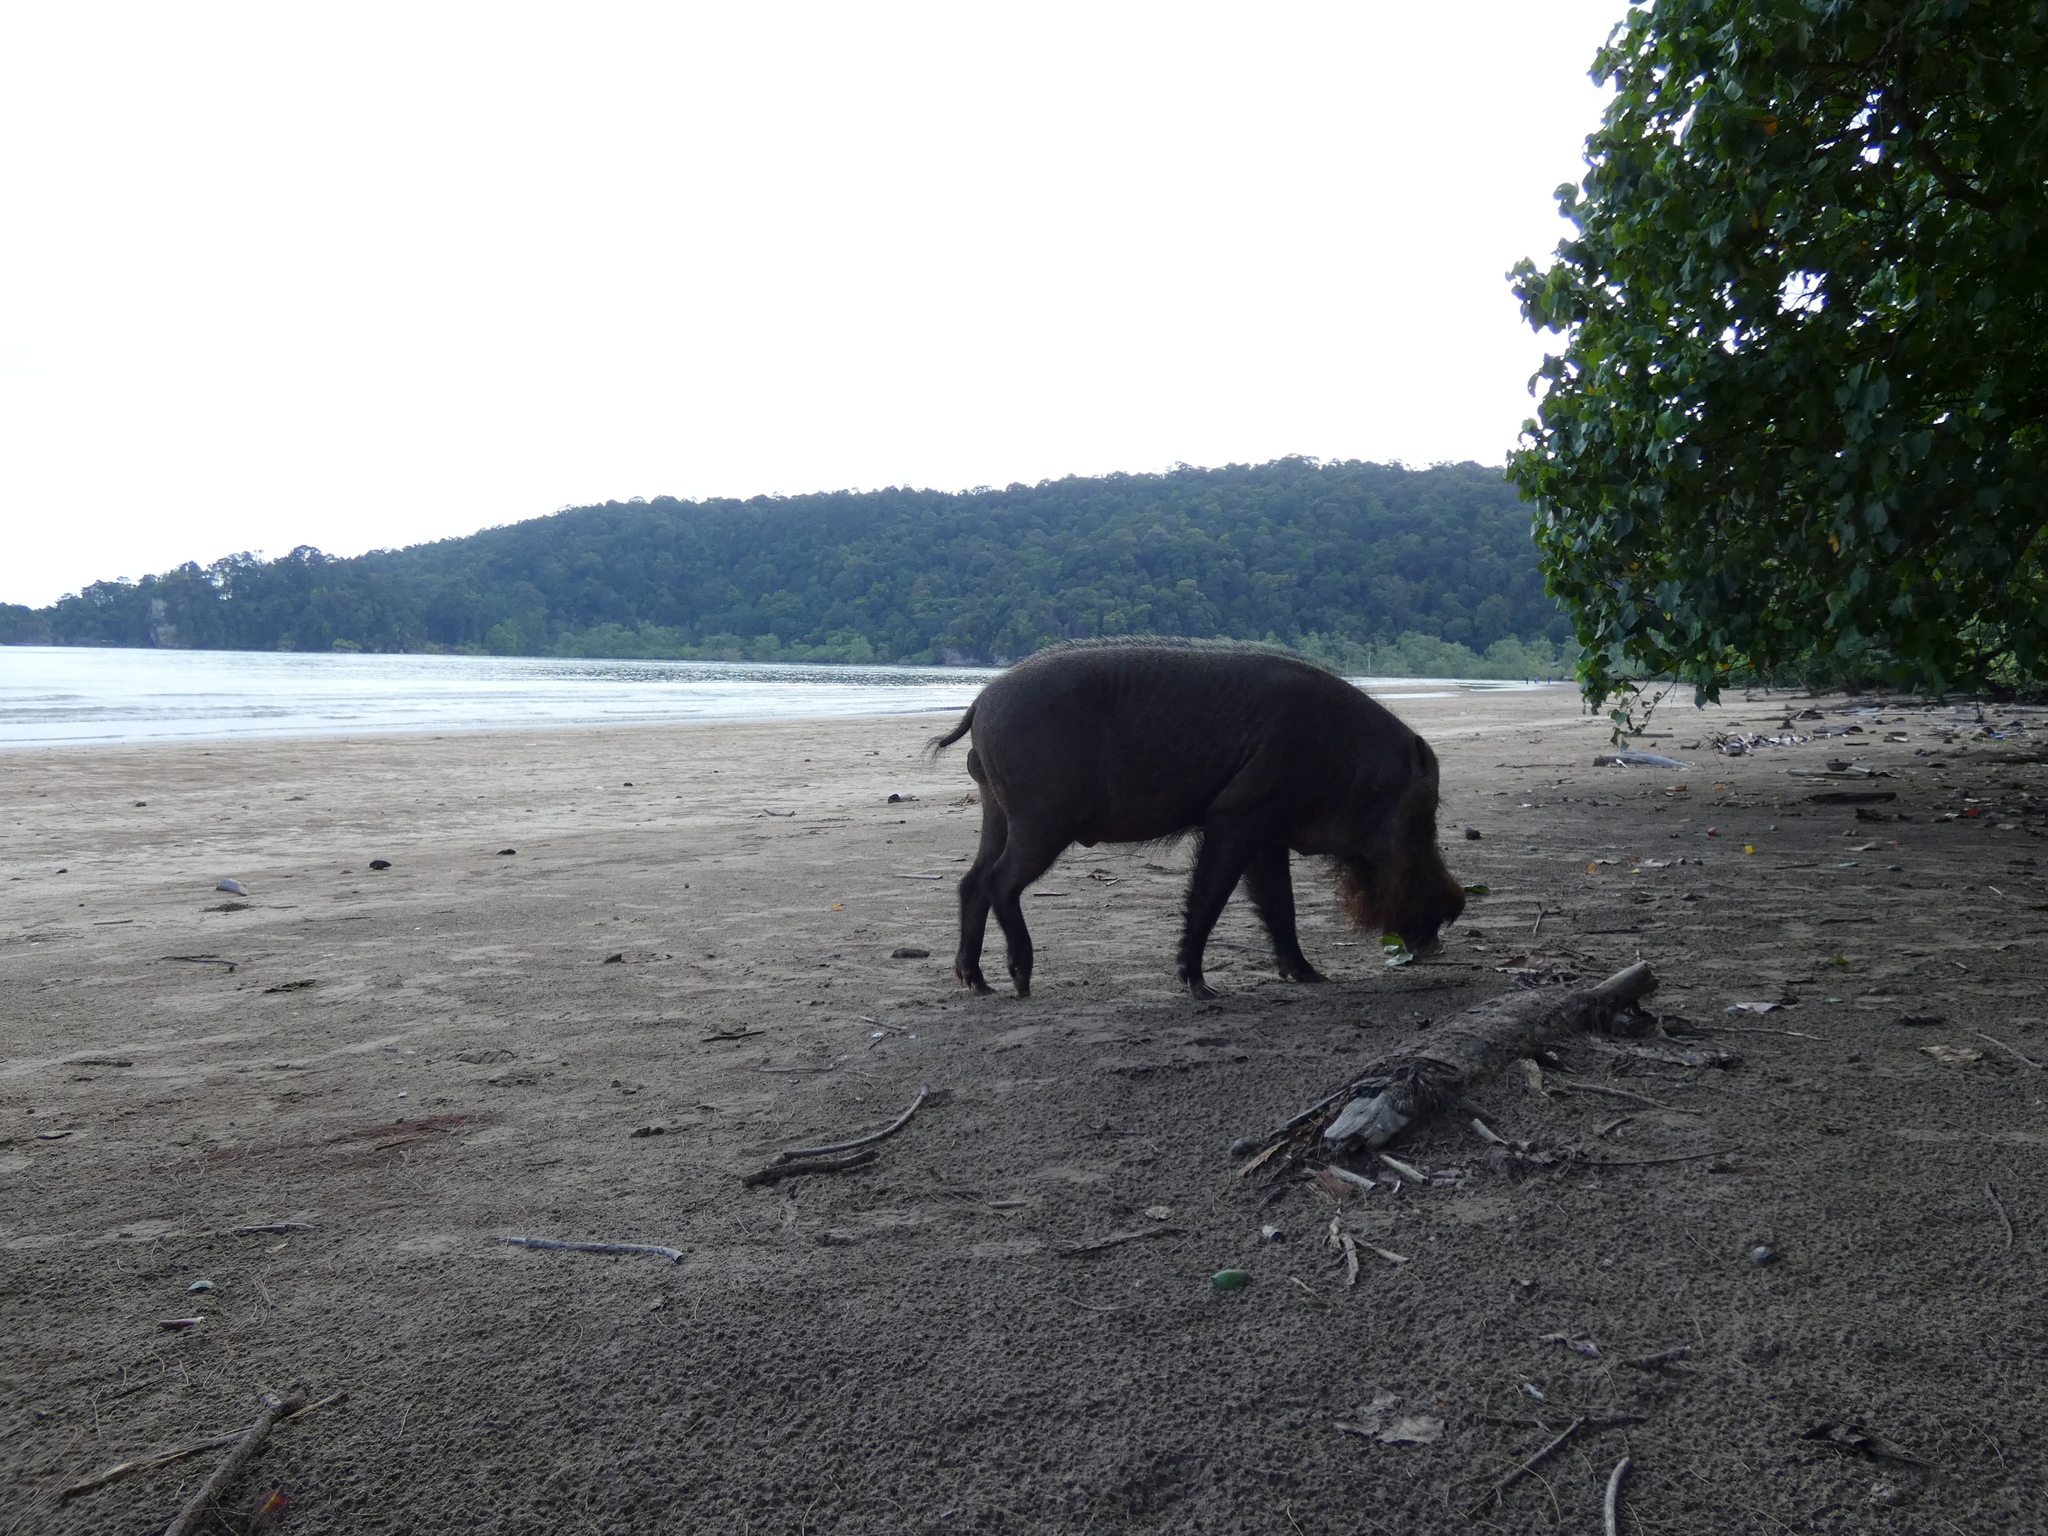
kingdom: Animalia
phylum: Chordata
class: Mammalia
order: Artiodactyla
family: Suidae
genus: Sus
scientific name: Sus barbatus
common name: Bearded pig
